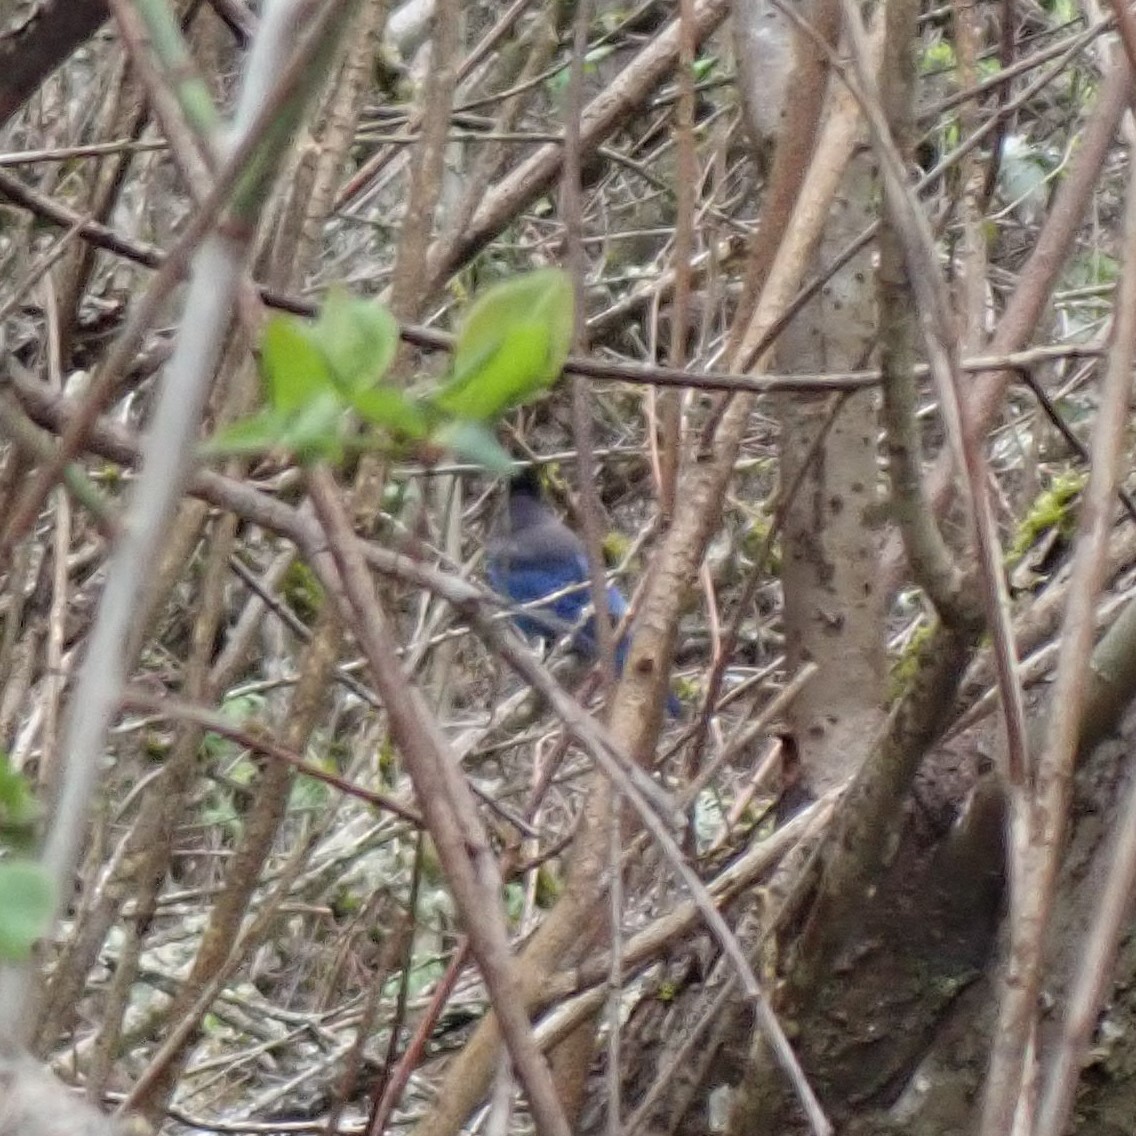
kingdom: Animalia
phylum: Chordata
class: Aves
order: Passeriformes
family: Corvidae
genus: Cyanocitta
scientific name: Cyanocitta stelleri
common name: Steller's jay
